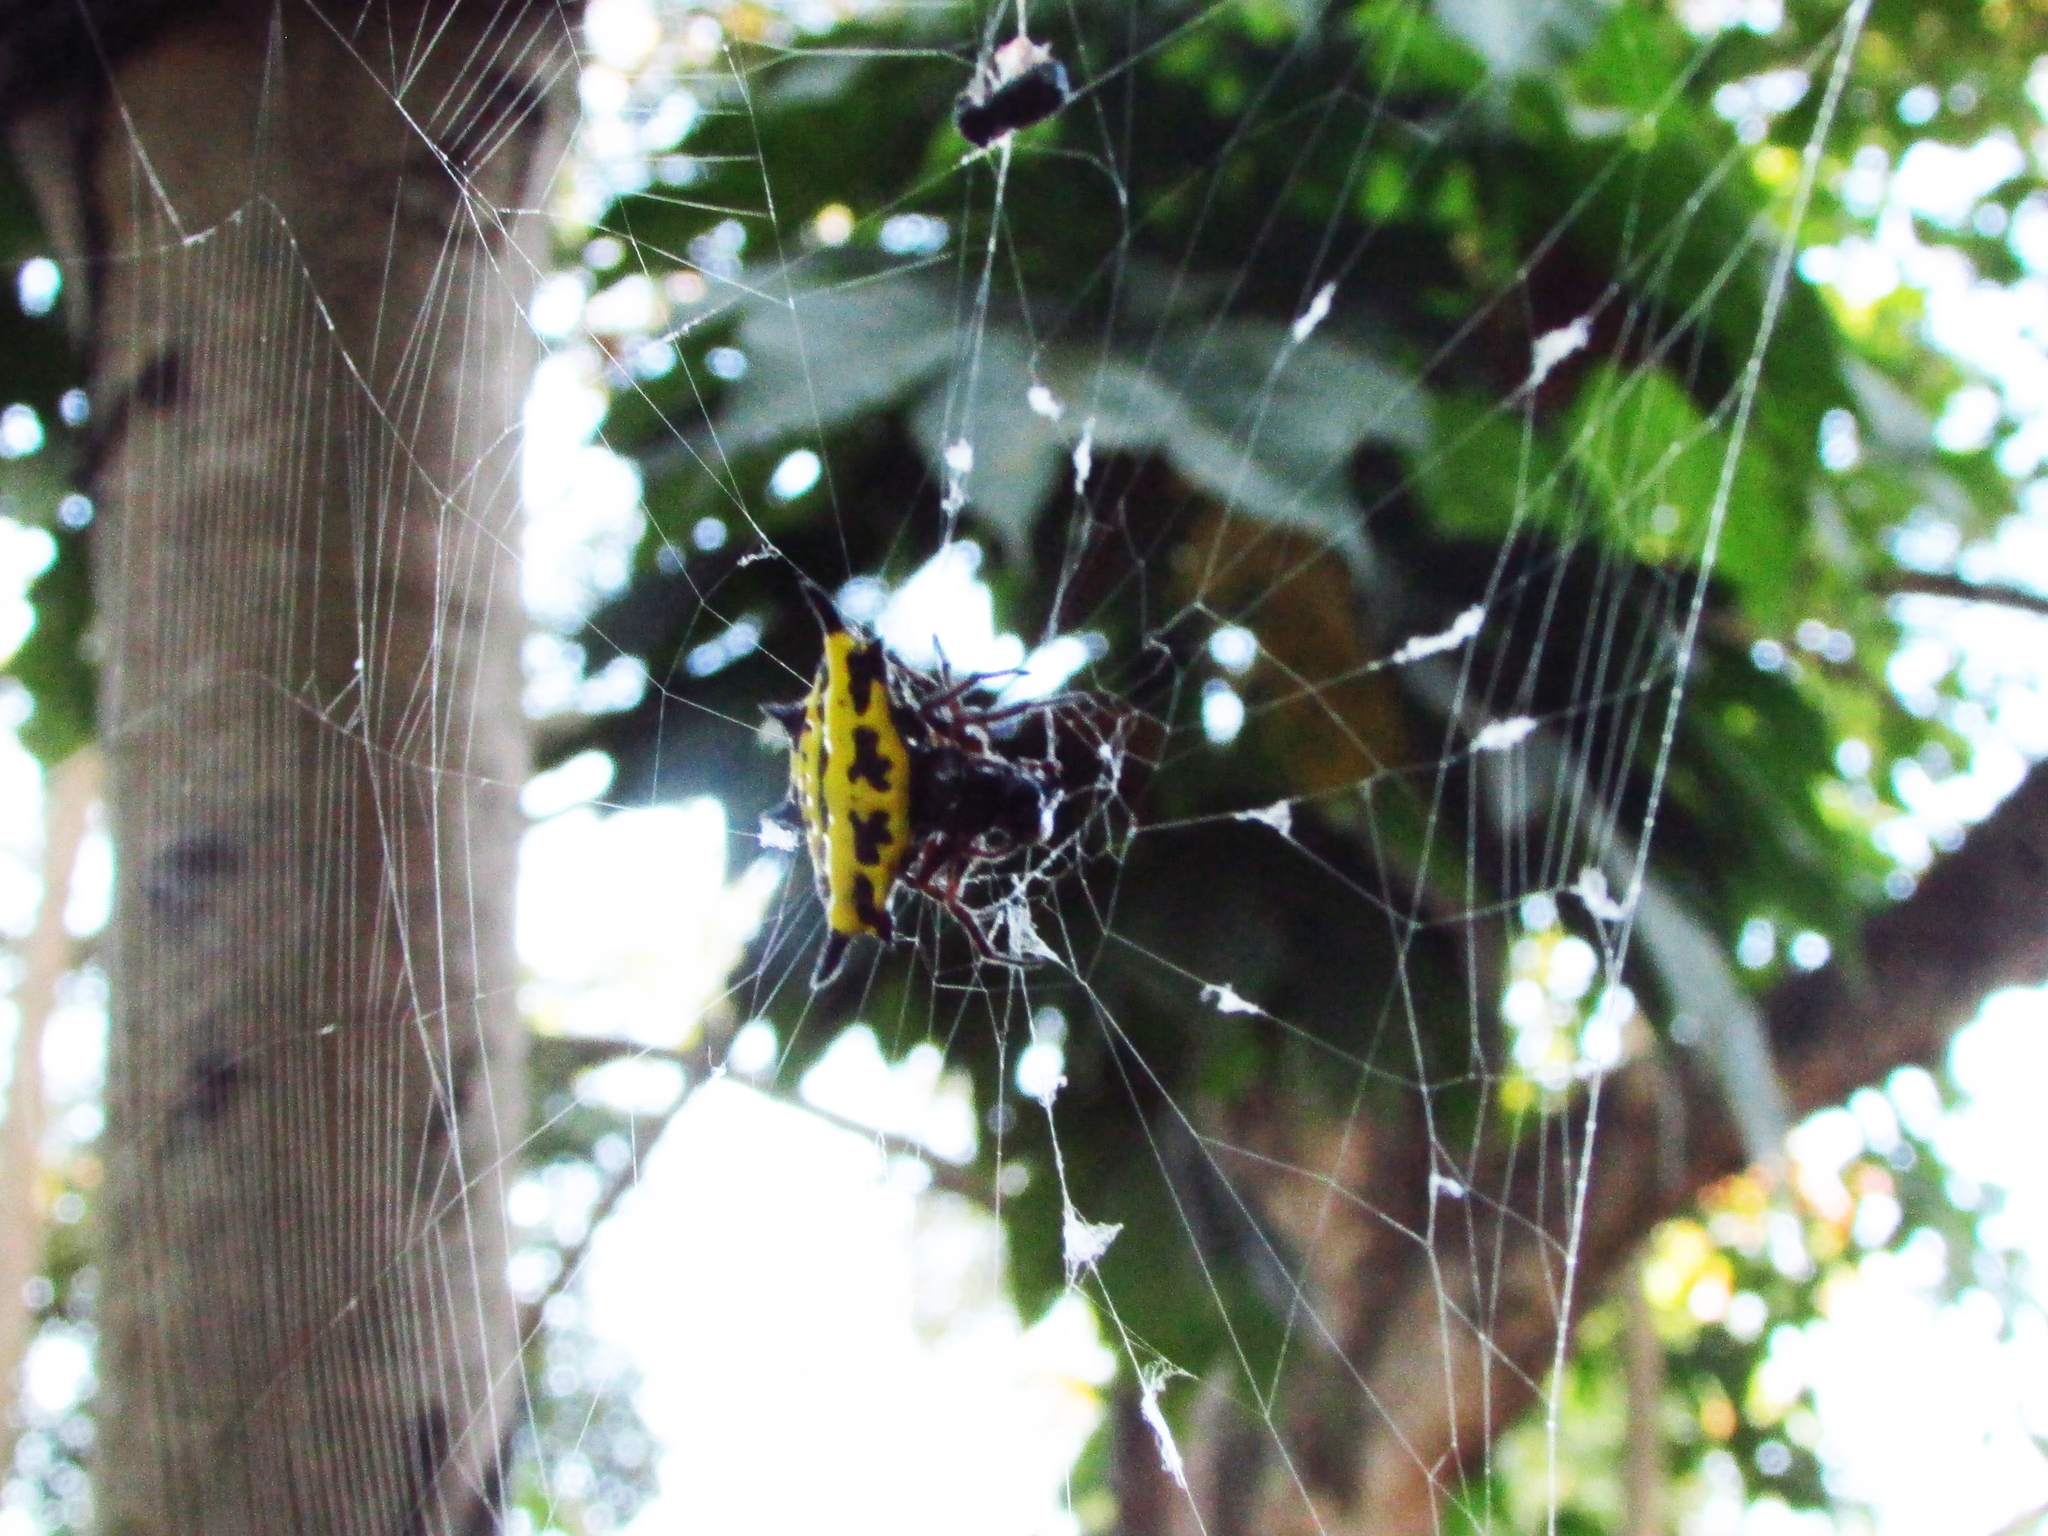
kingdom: Animalia
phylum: Arthropoda
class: Arachnida
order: Araneae
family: Araneidae
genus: Gasteracantha
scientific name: Gasteracantha panisicca
